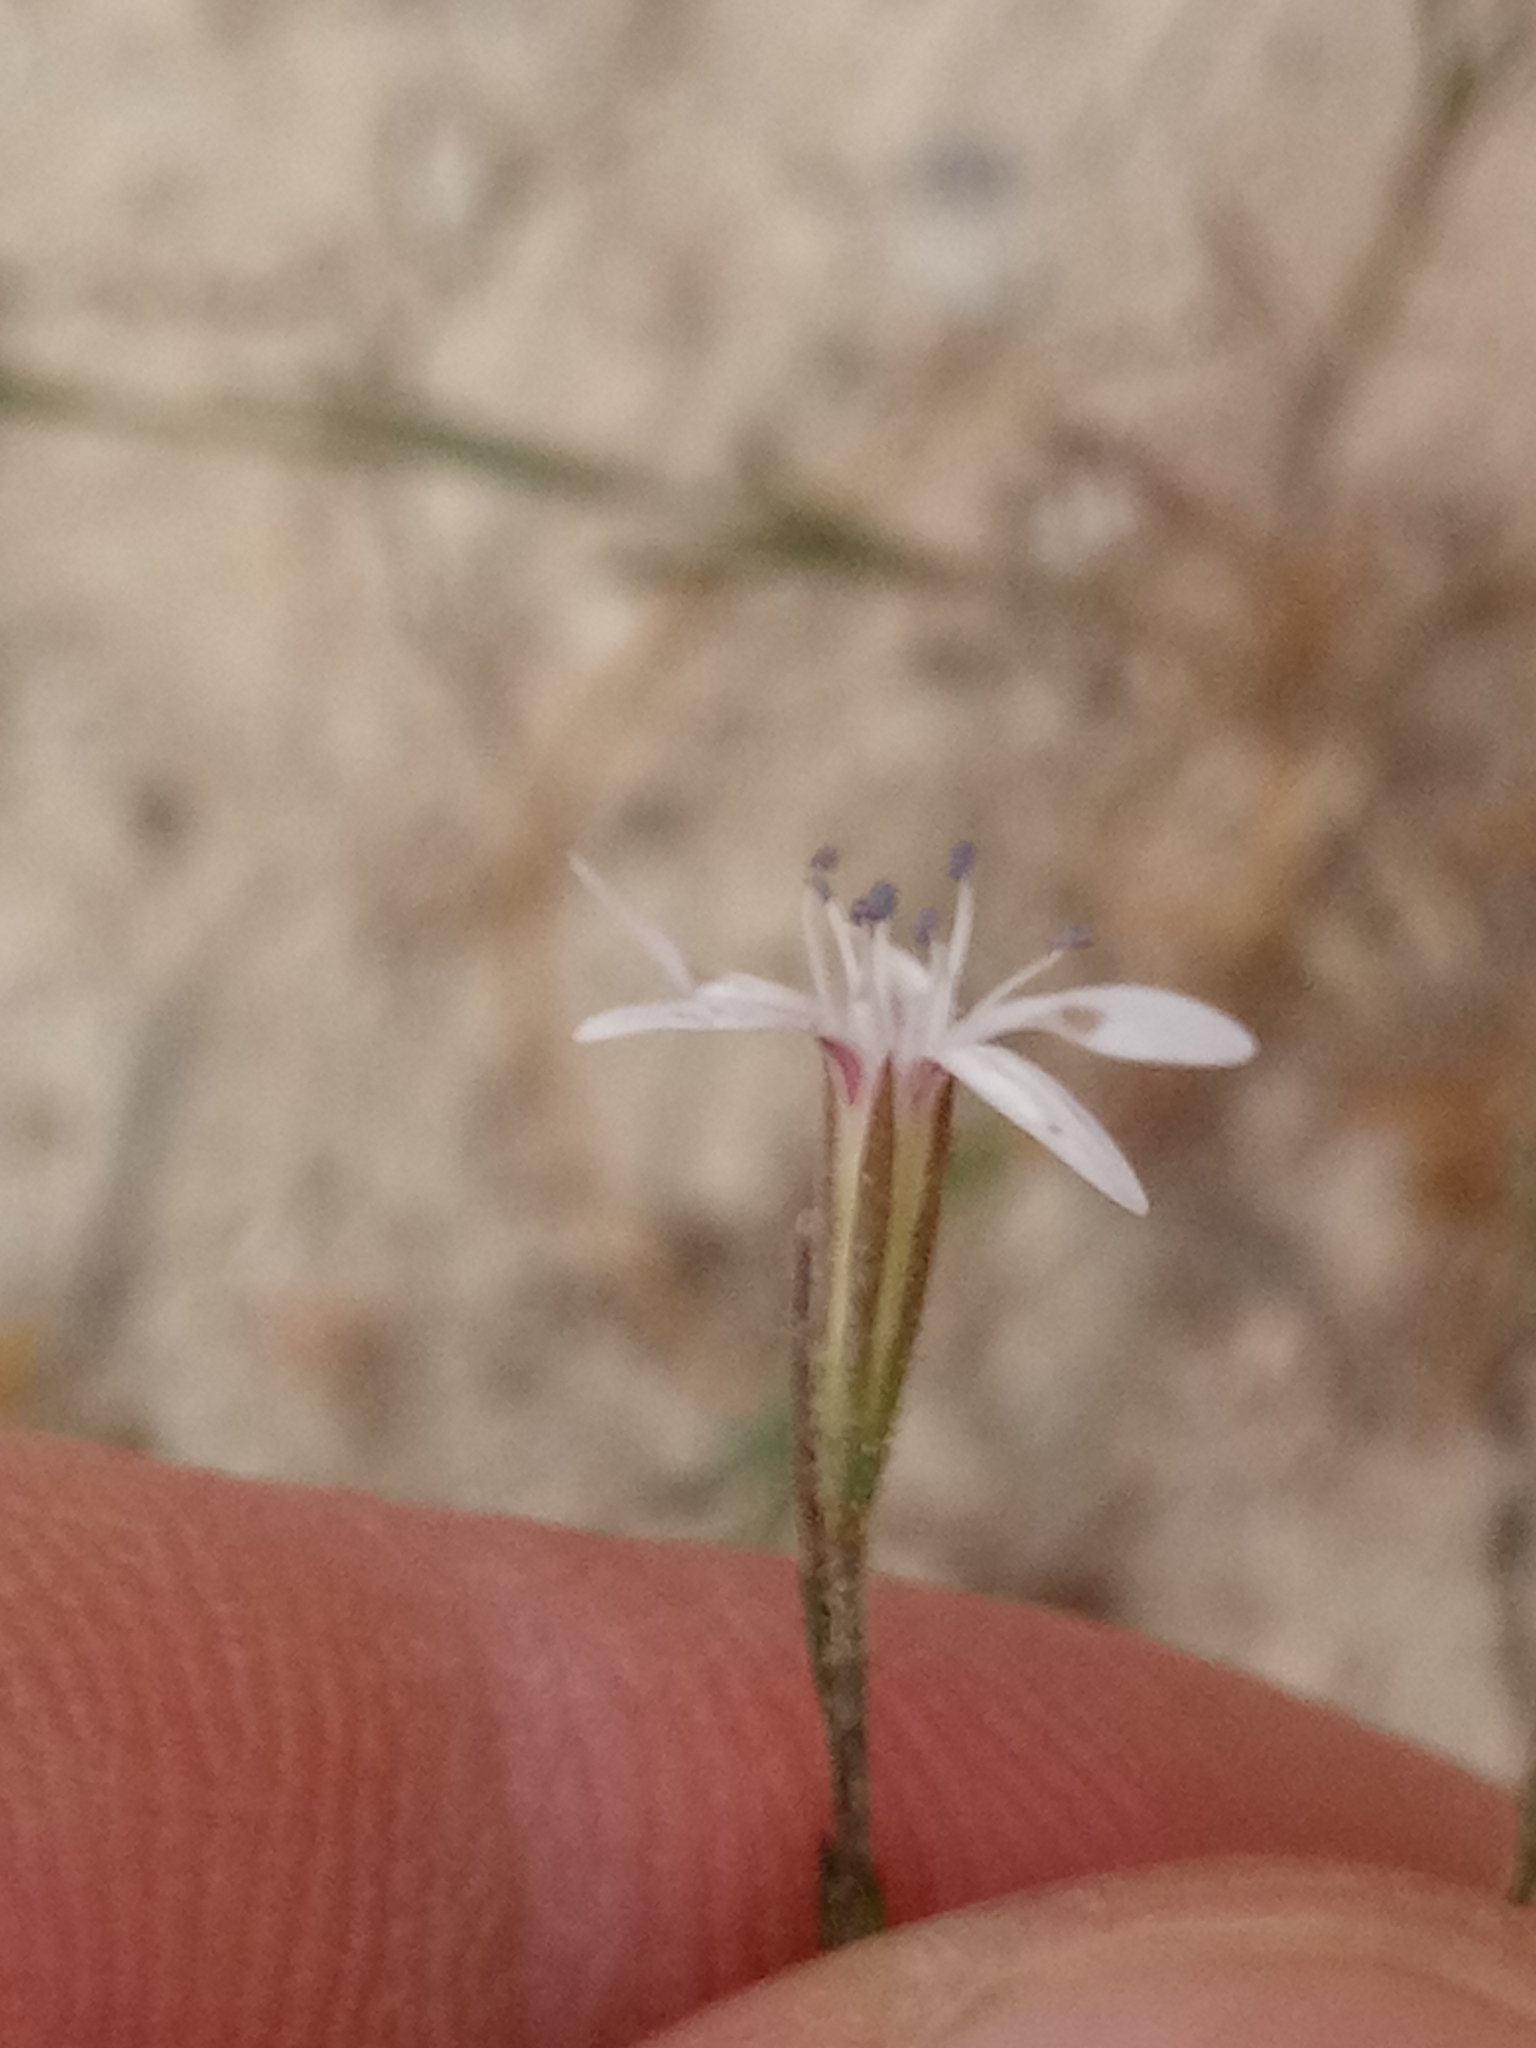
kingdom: Plantae
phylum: Tracheophyta
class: Magnoliopsida
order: Caryophyllales
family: Caryophyllaceae
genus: Dianthus
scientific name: Dianthus illyricus
